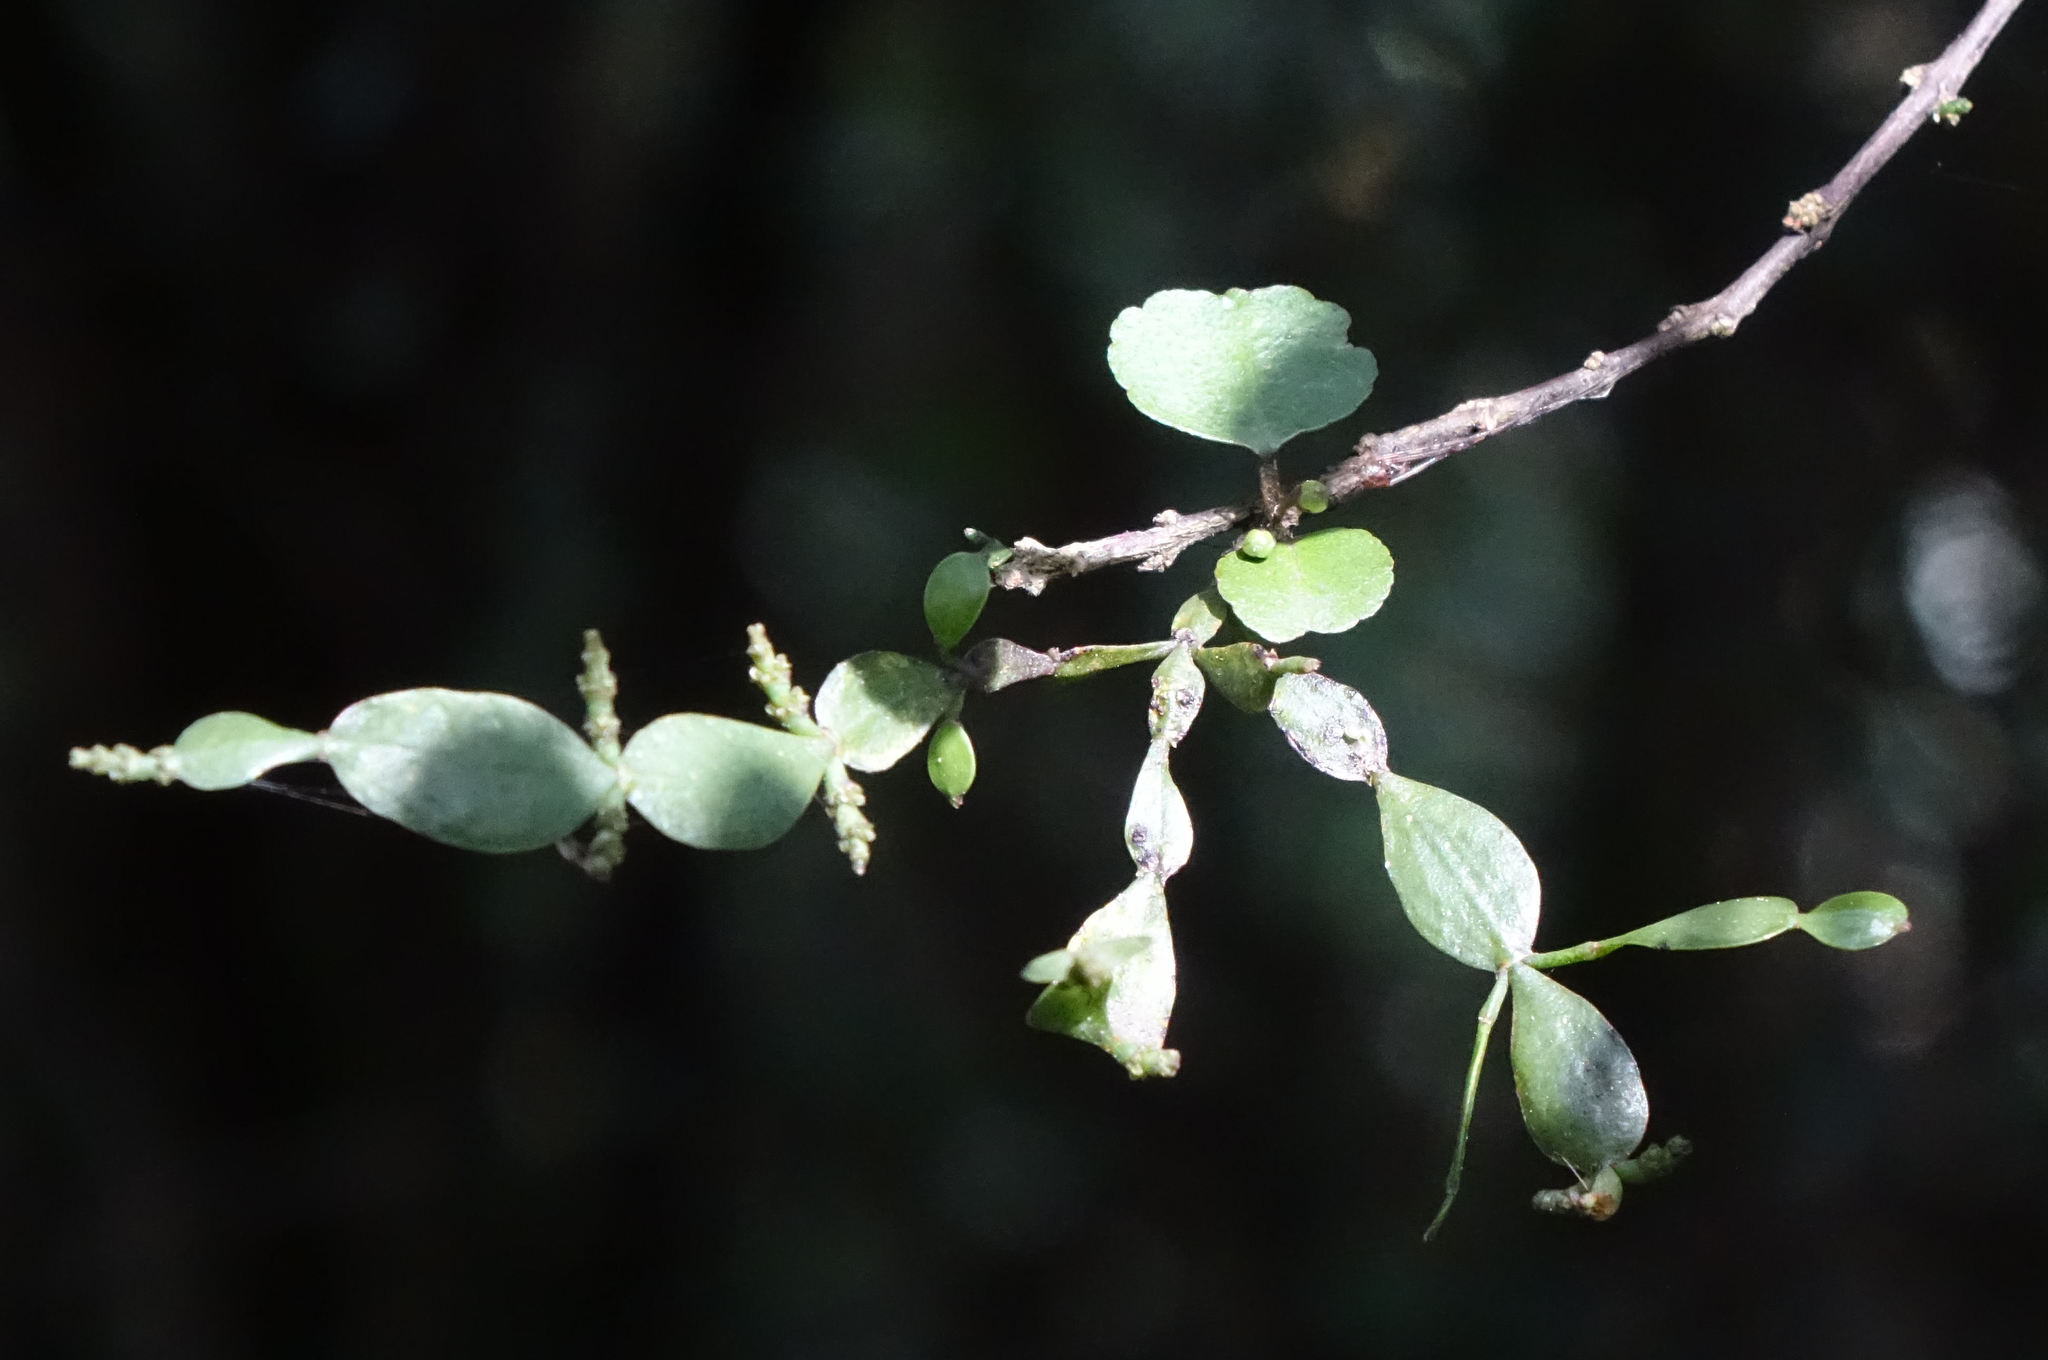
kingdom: Plantae
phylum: Tracheophyta
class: Magnoliopsida
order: Santalales
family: Viscaceae
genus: Korthalsella
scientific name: Korthalsella lindsayi
